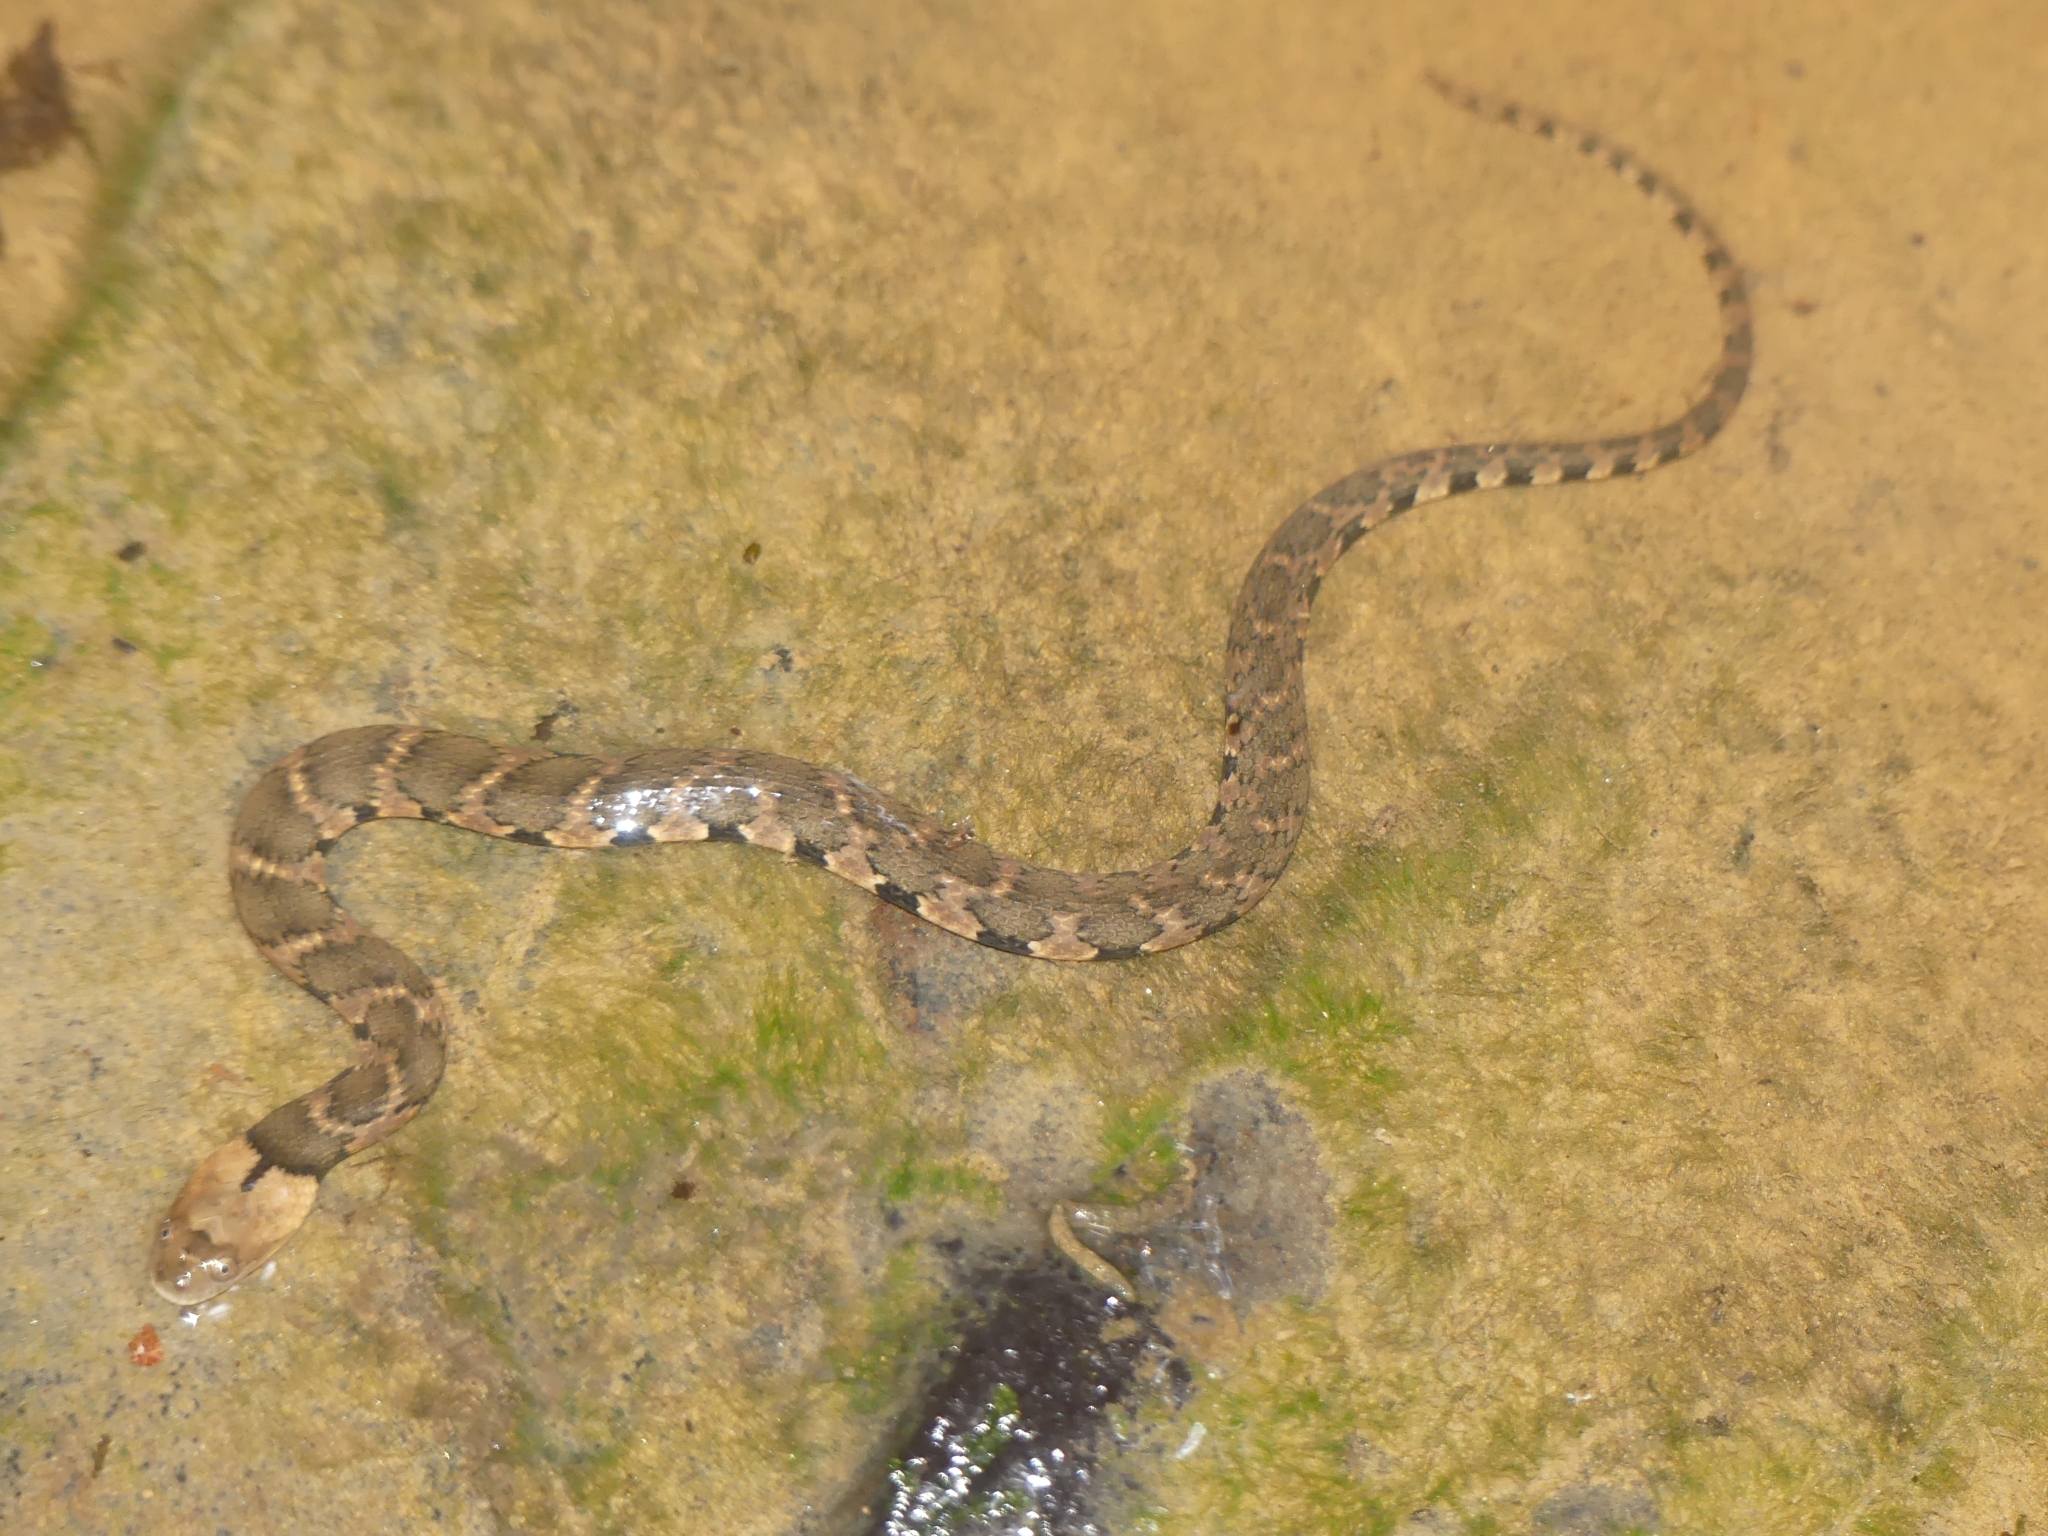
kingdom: Animalia
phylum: Chordata
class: Squamata
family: Colubridae
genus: Helicops
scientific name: Helicops angulatus
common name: Mountain keelback
